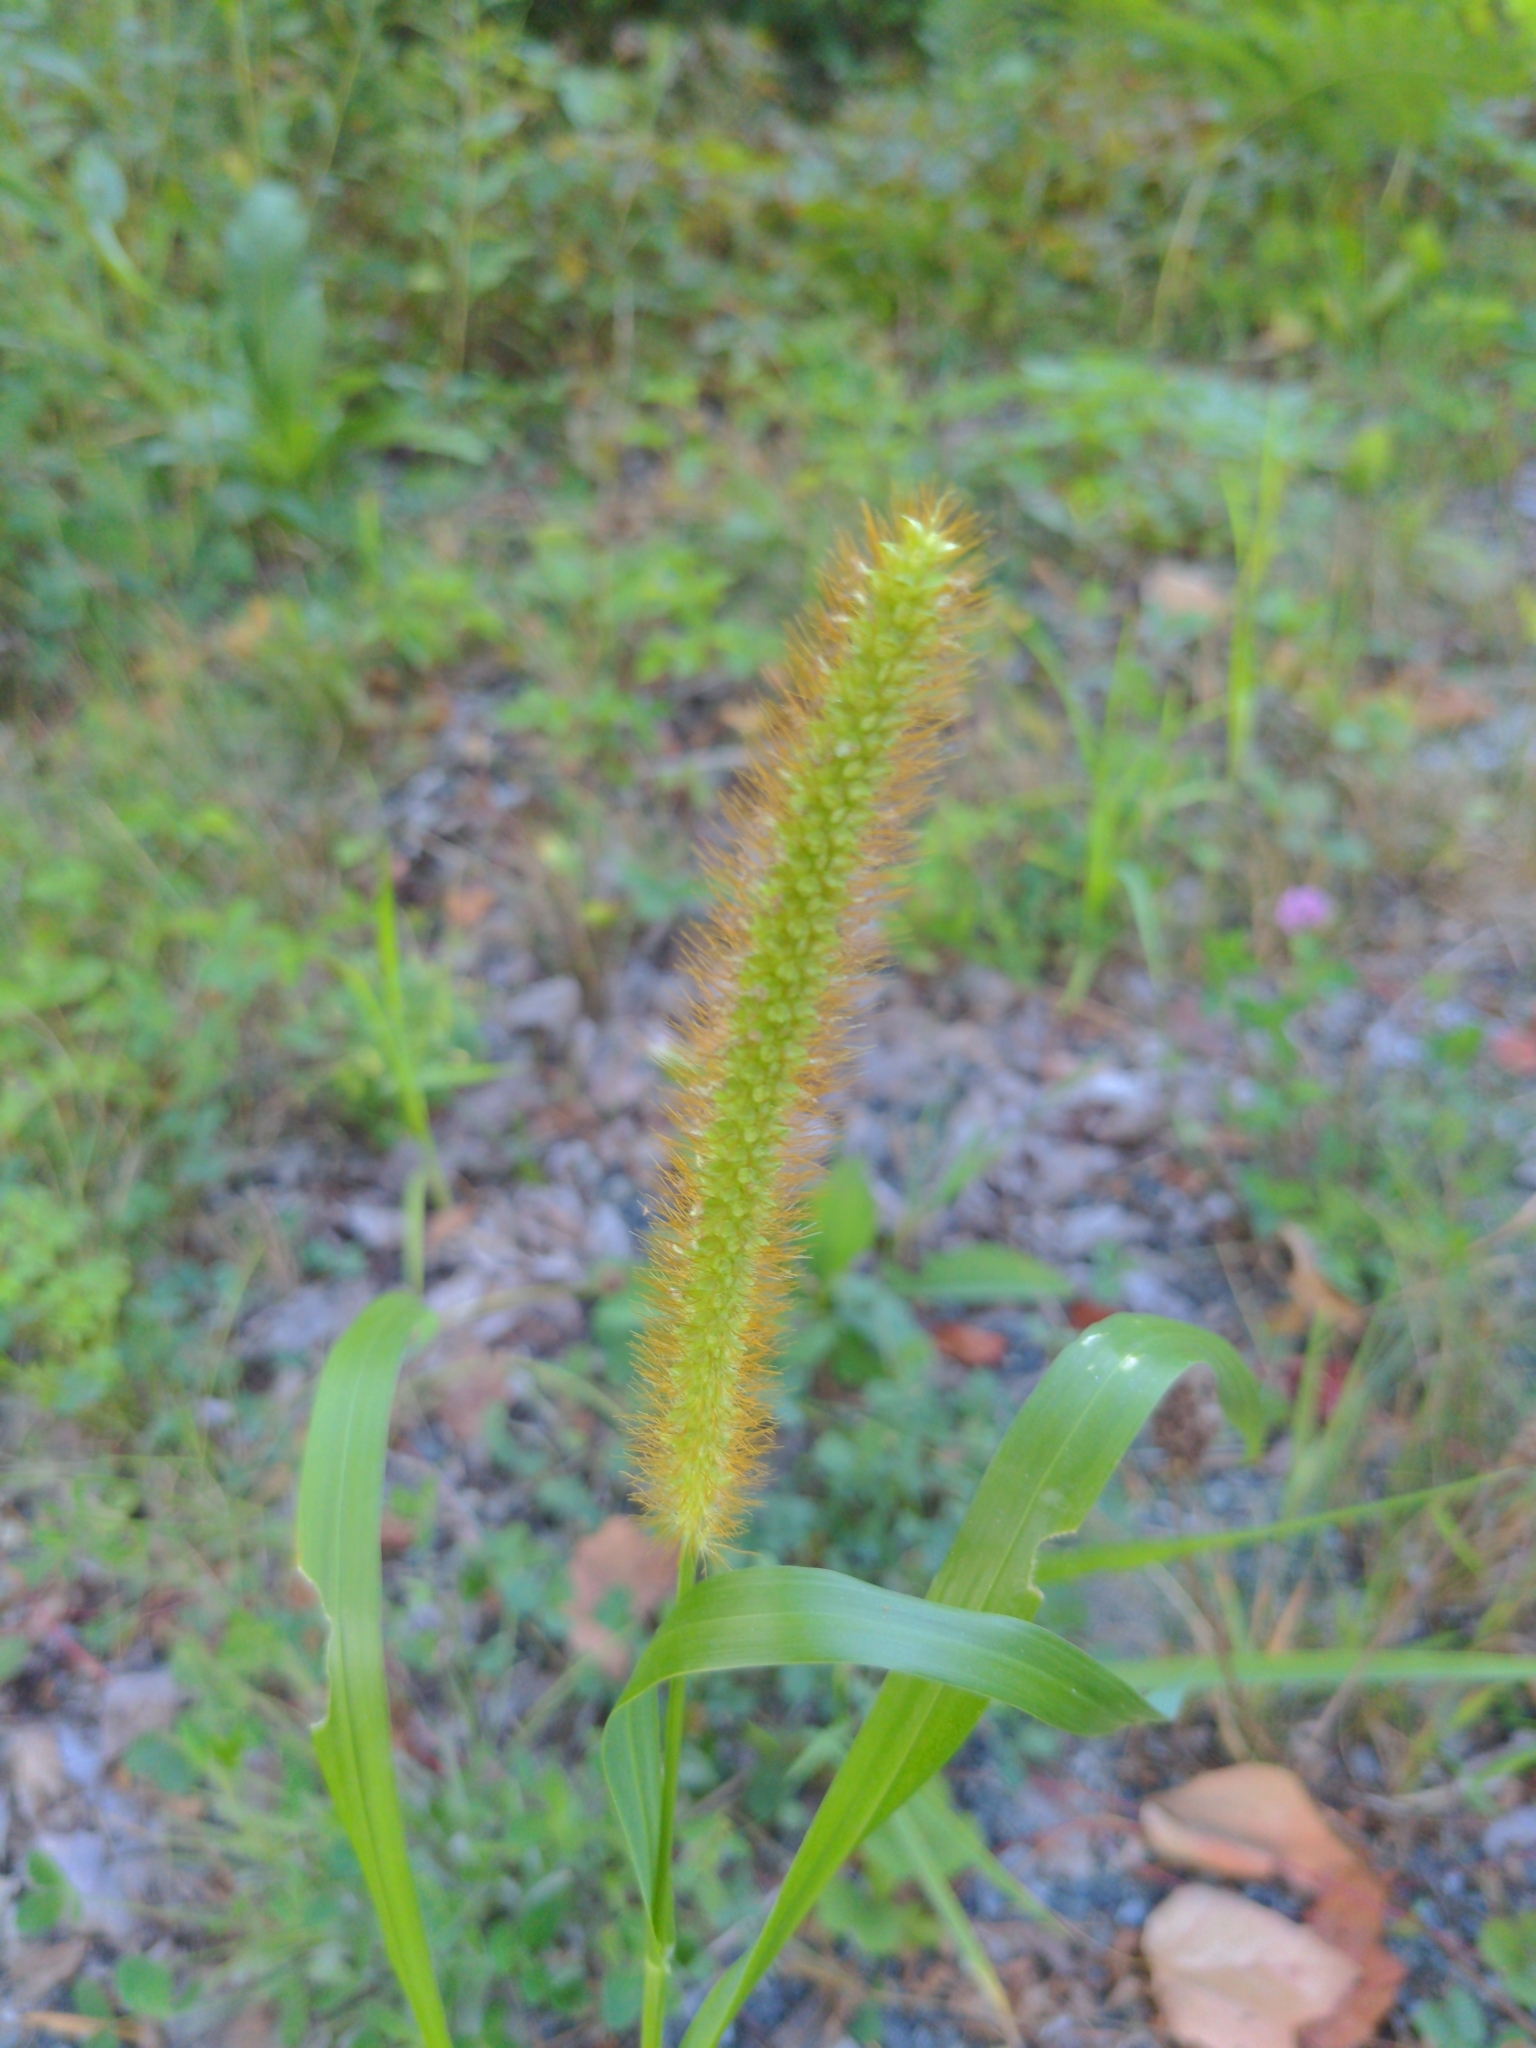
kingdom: Plantae
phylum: Tracheophyta
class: Liliopsida
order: Poales
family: Poaceae
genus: Setaria
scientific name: Setaria pumila
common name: Yellow bristle-grass
